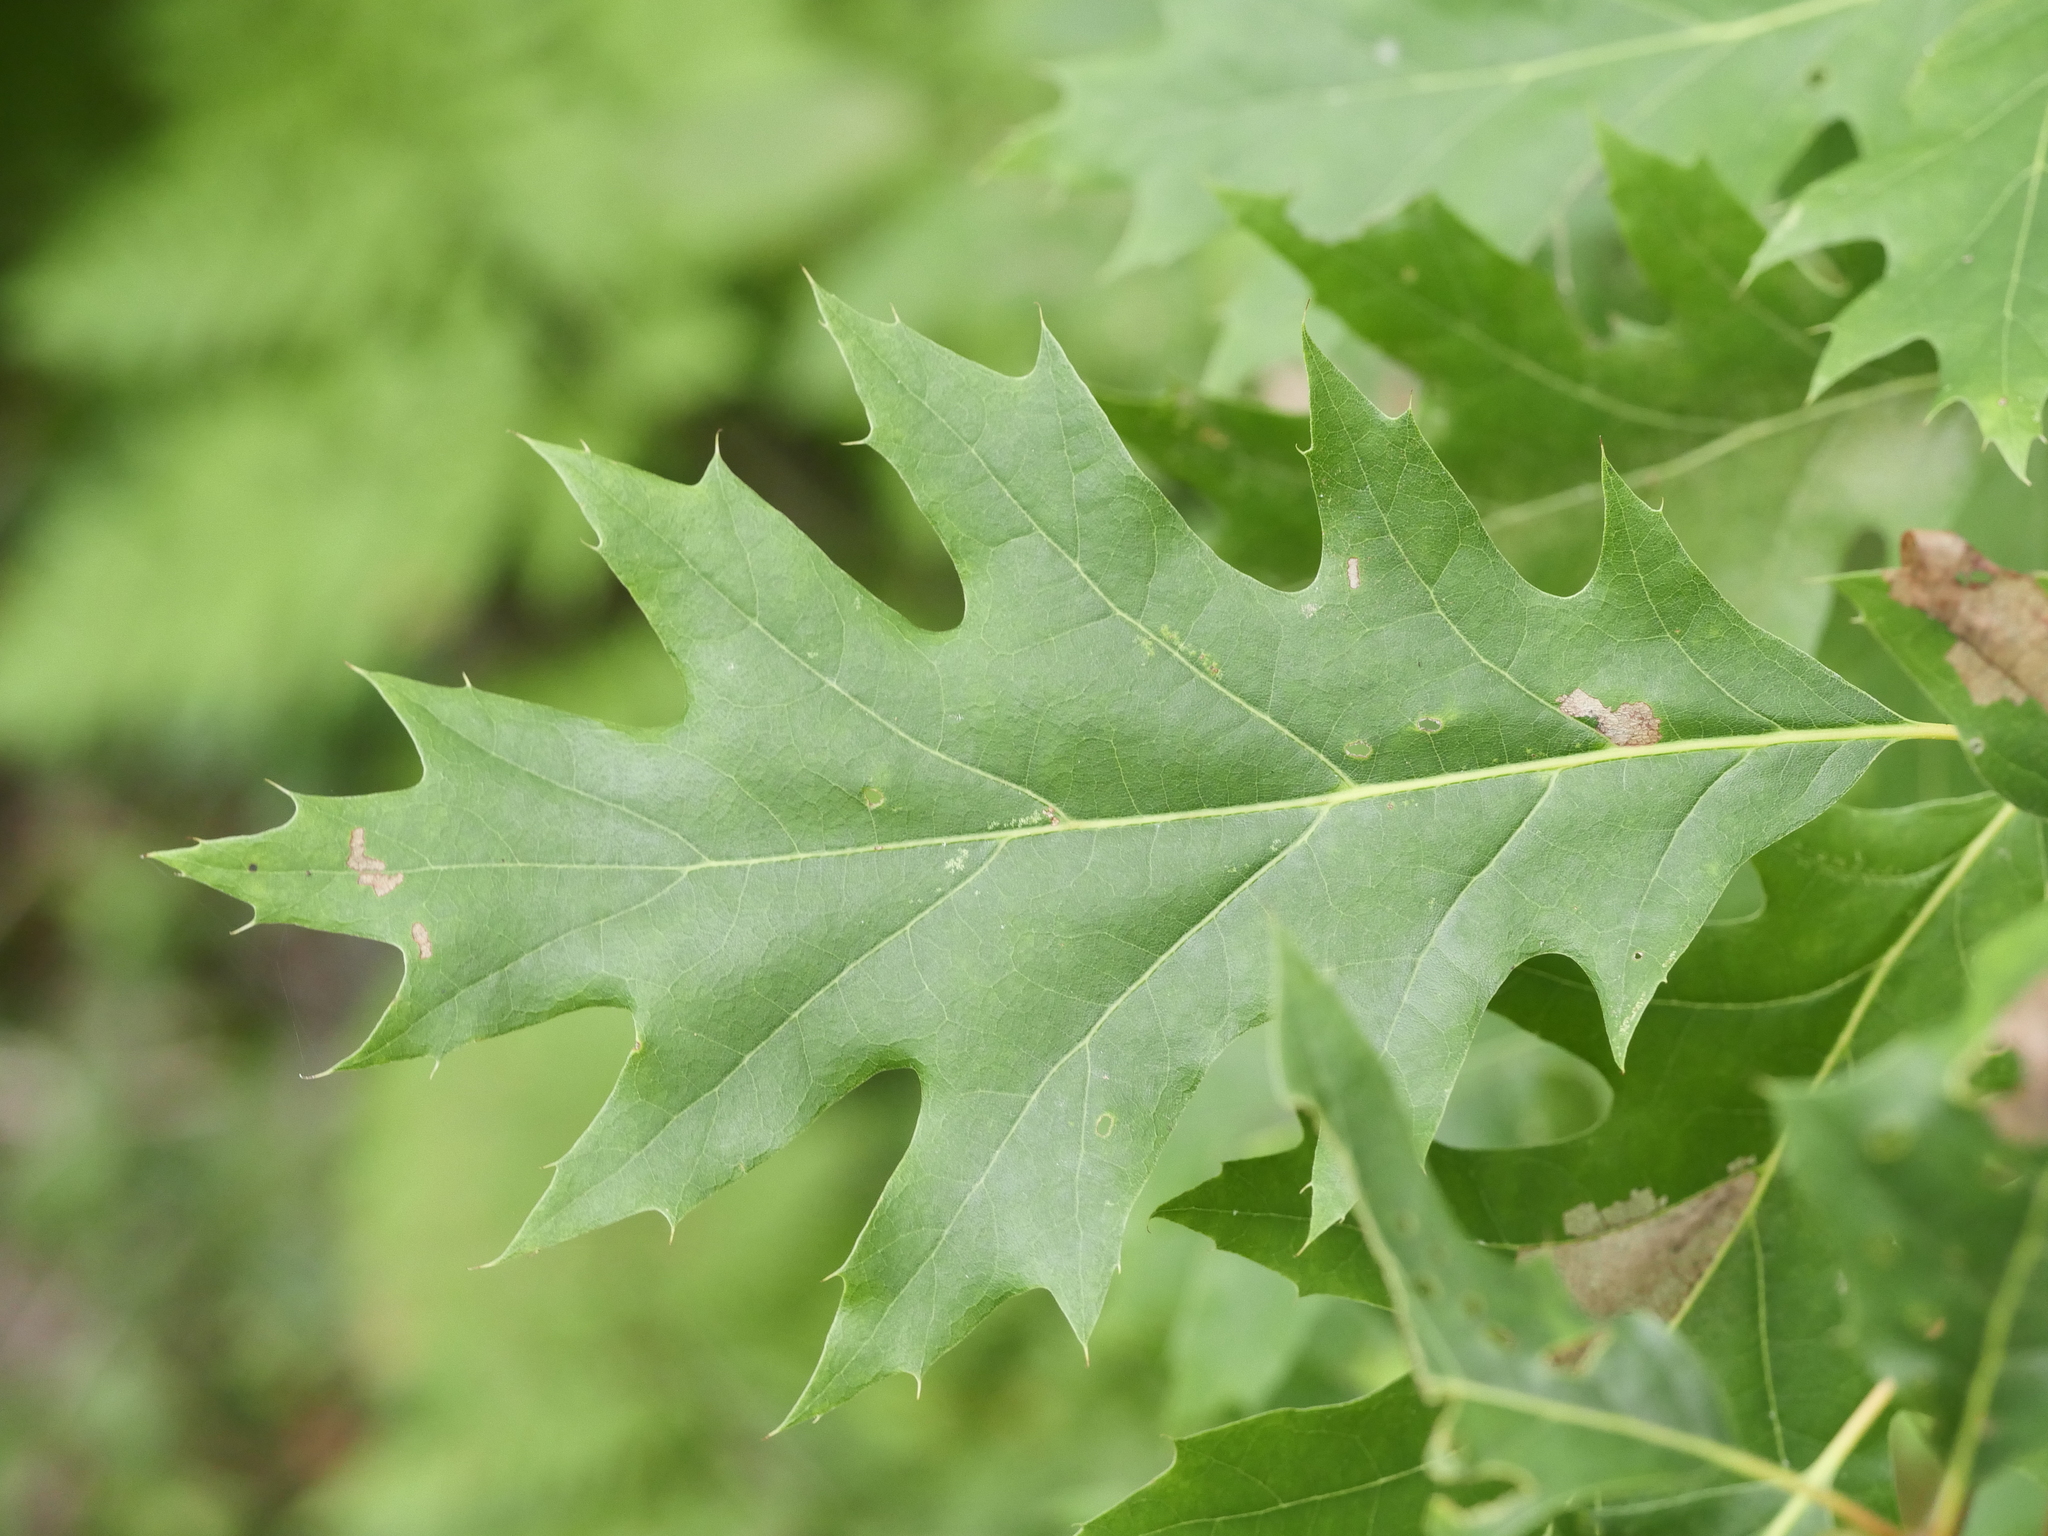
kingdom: Plantae
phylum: Tracheophyta
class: Magnoliopsida
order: Fagales
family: Fagaceae
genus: Quercus
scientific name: Quercus rubra
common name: Red oak
